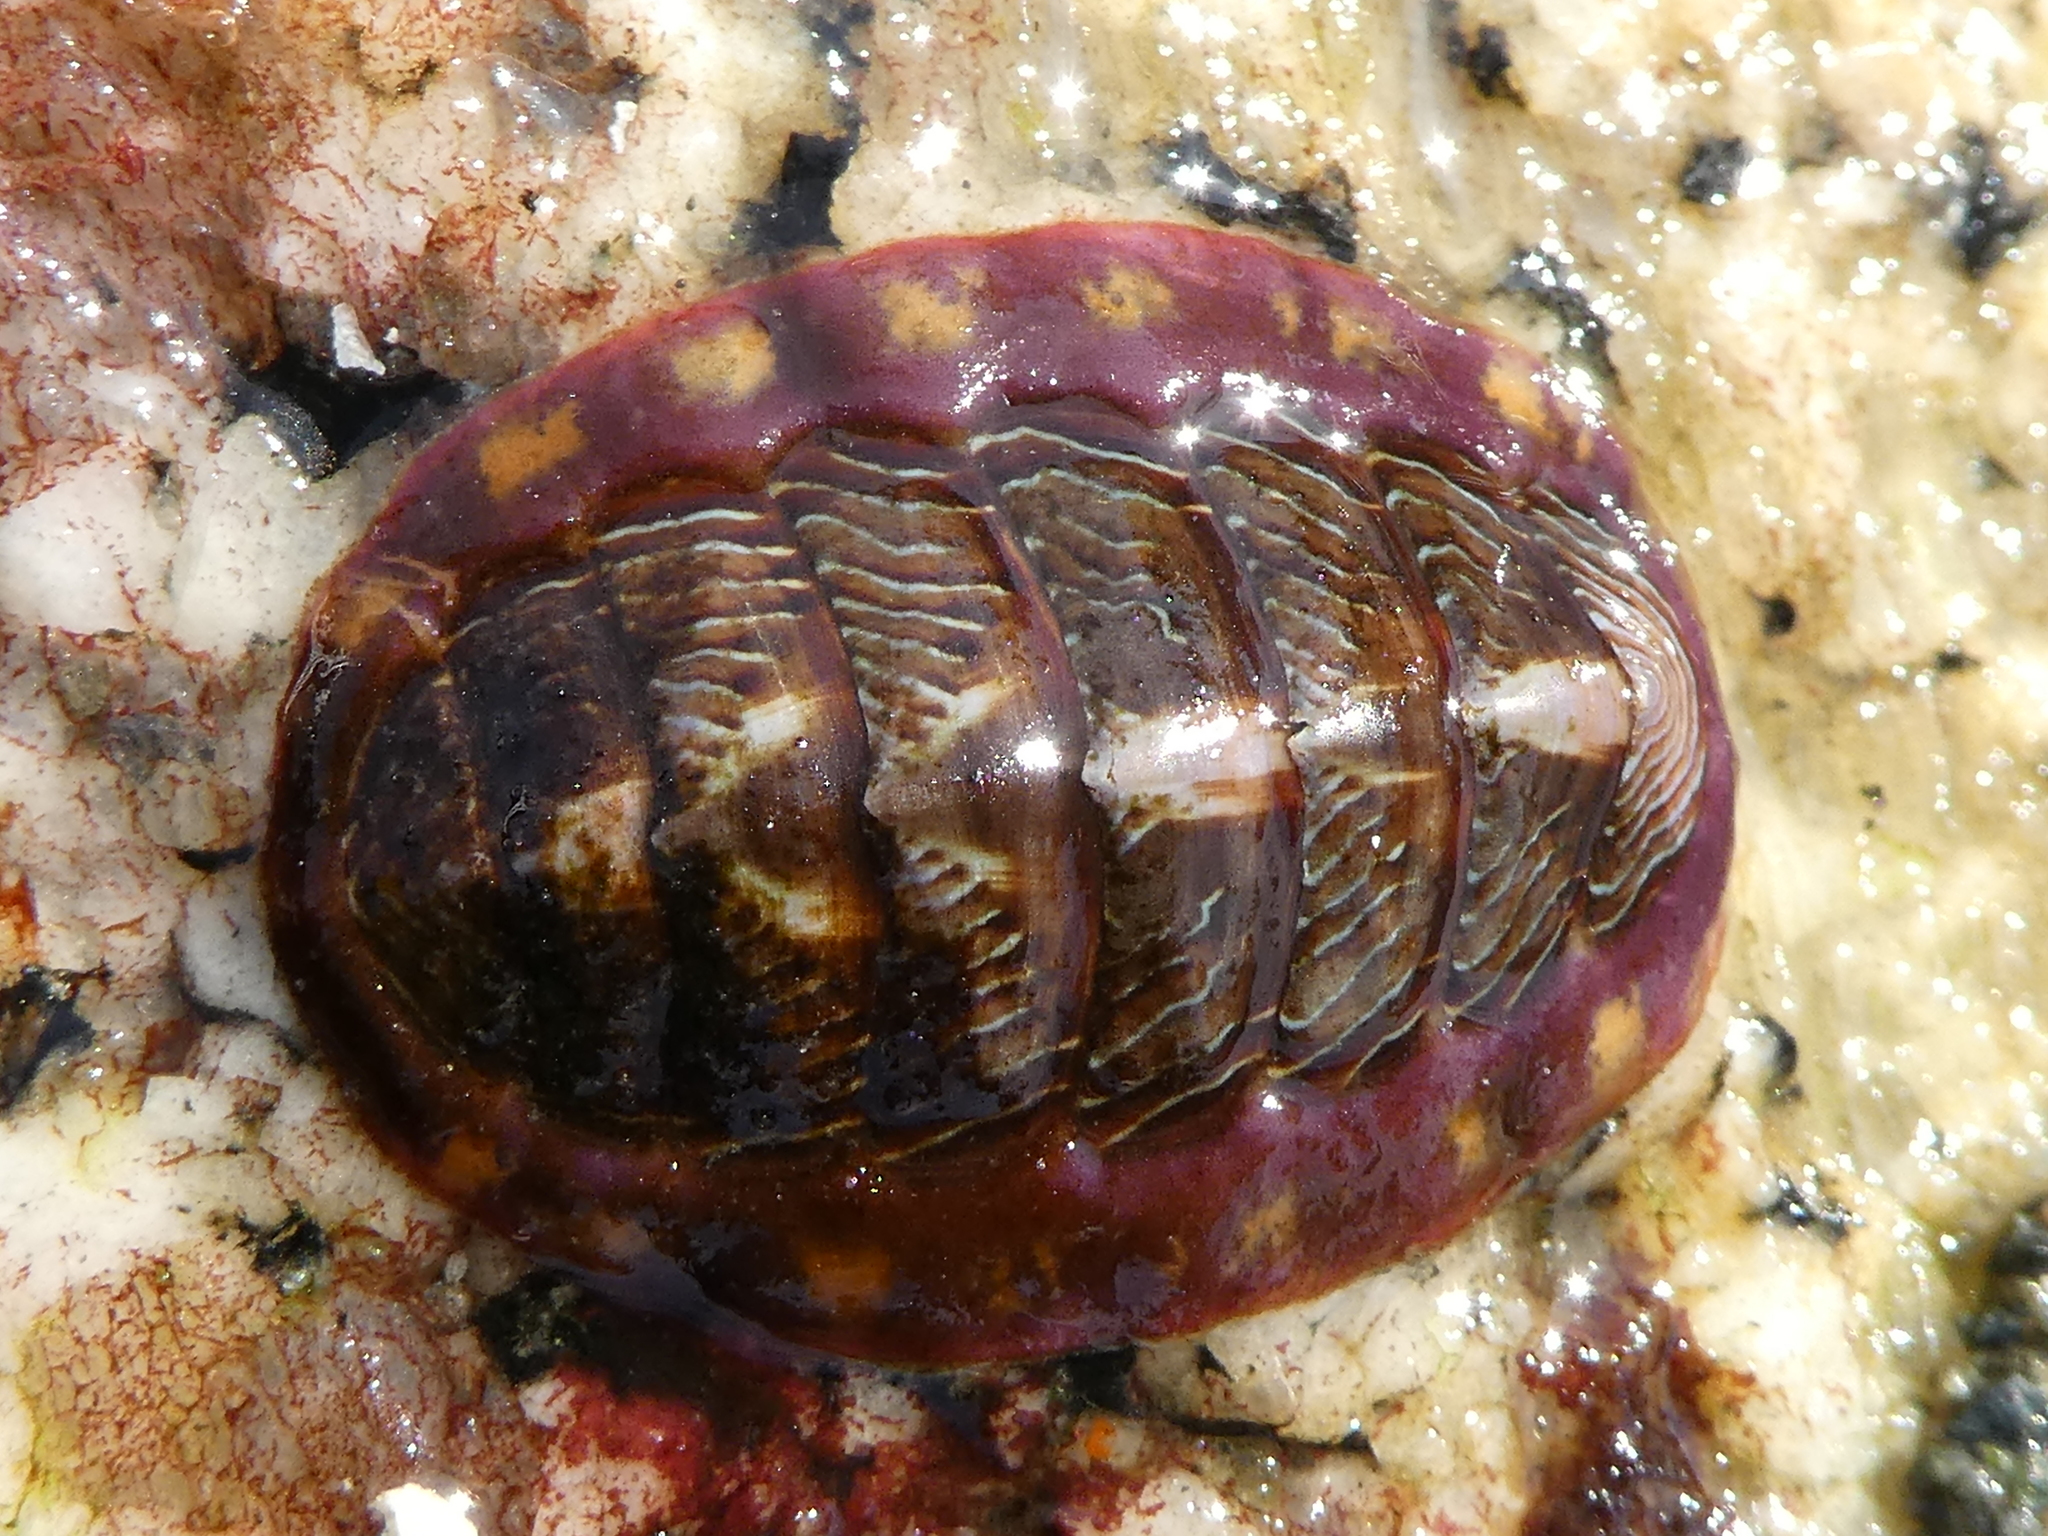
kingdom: Animalia
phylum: Mollusca
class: Polyplacophora
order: Chitonida
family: Tonicellidae
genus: Tonicella
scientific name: Tonicella lineata
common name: Lined chiton
